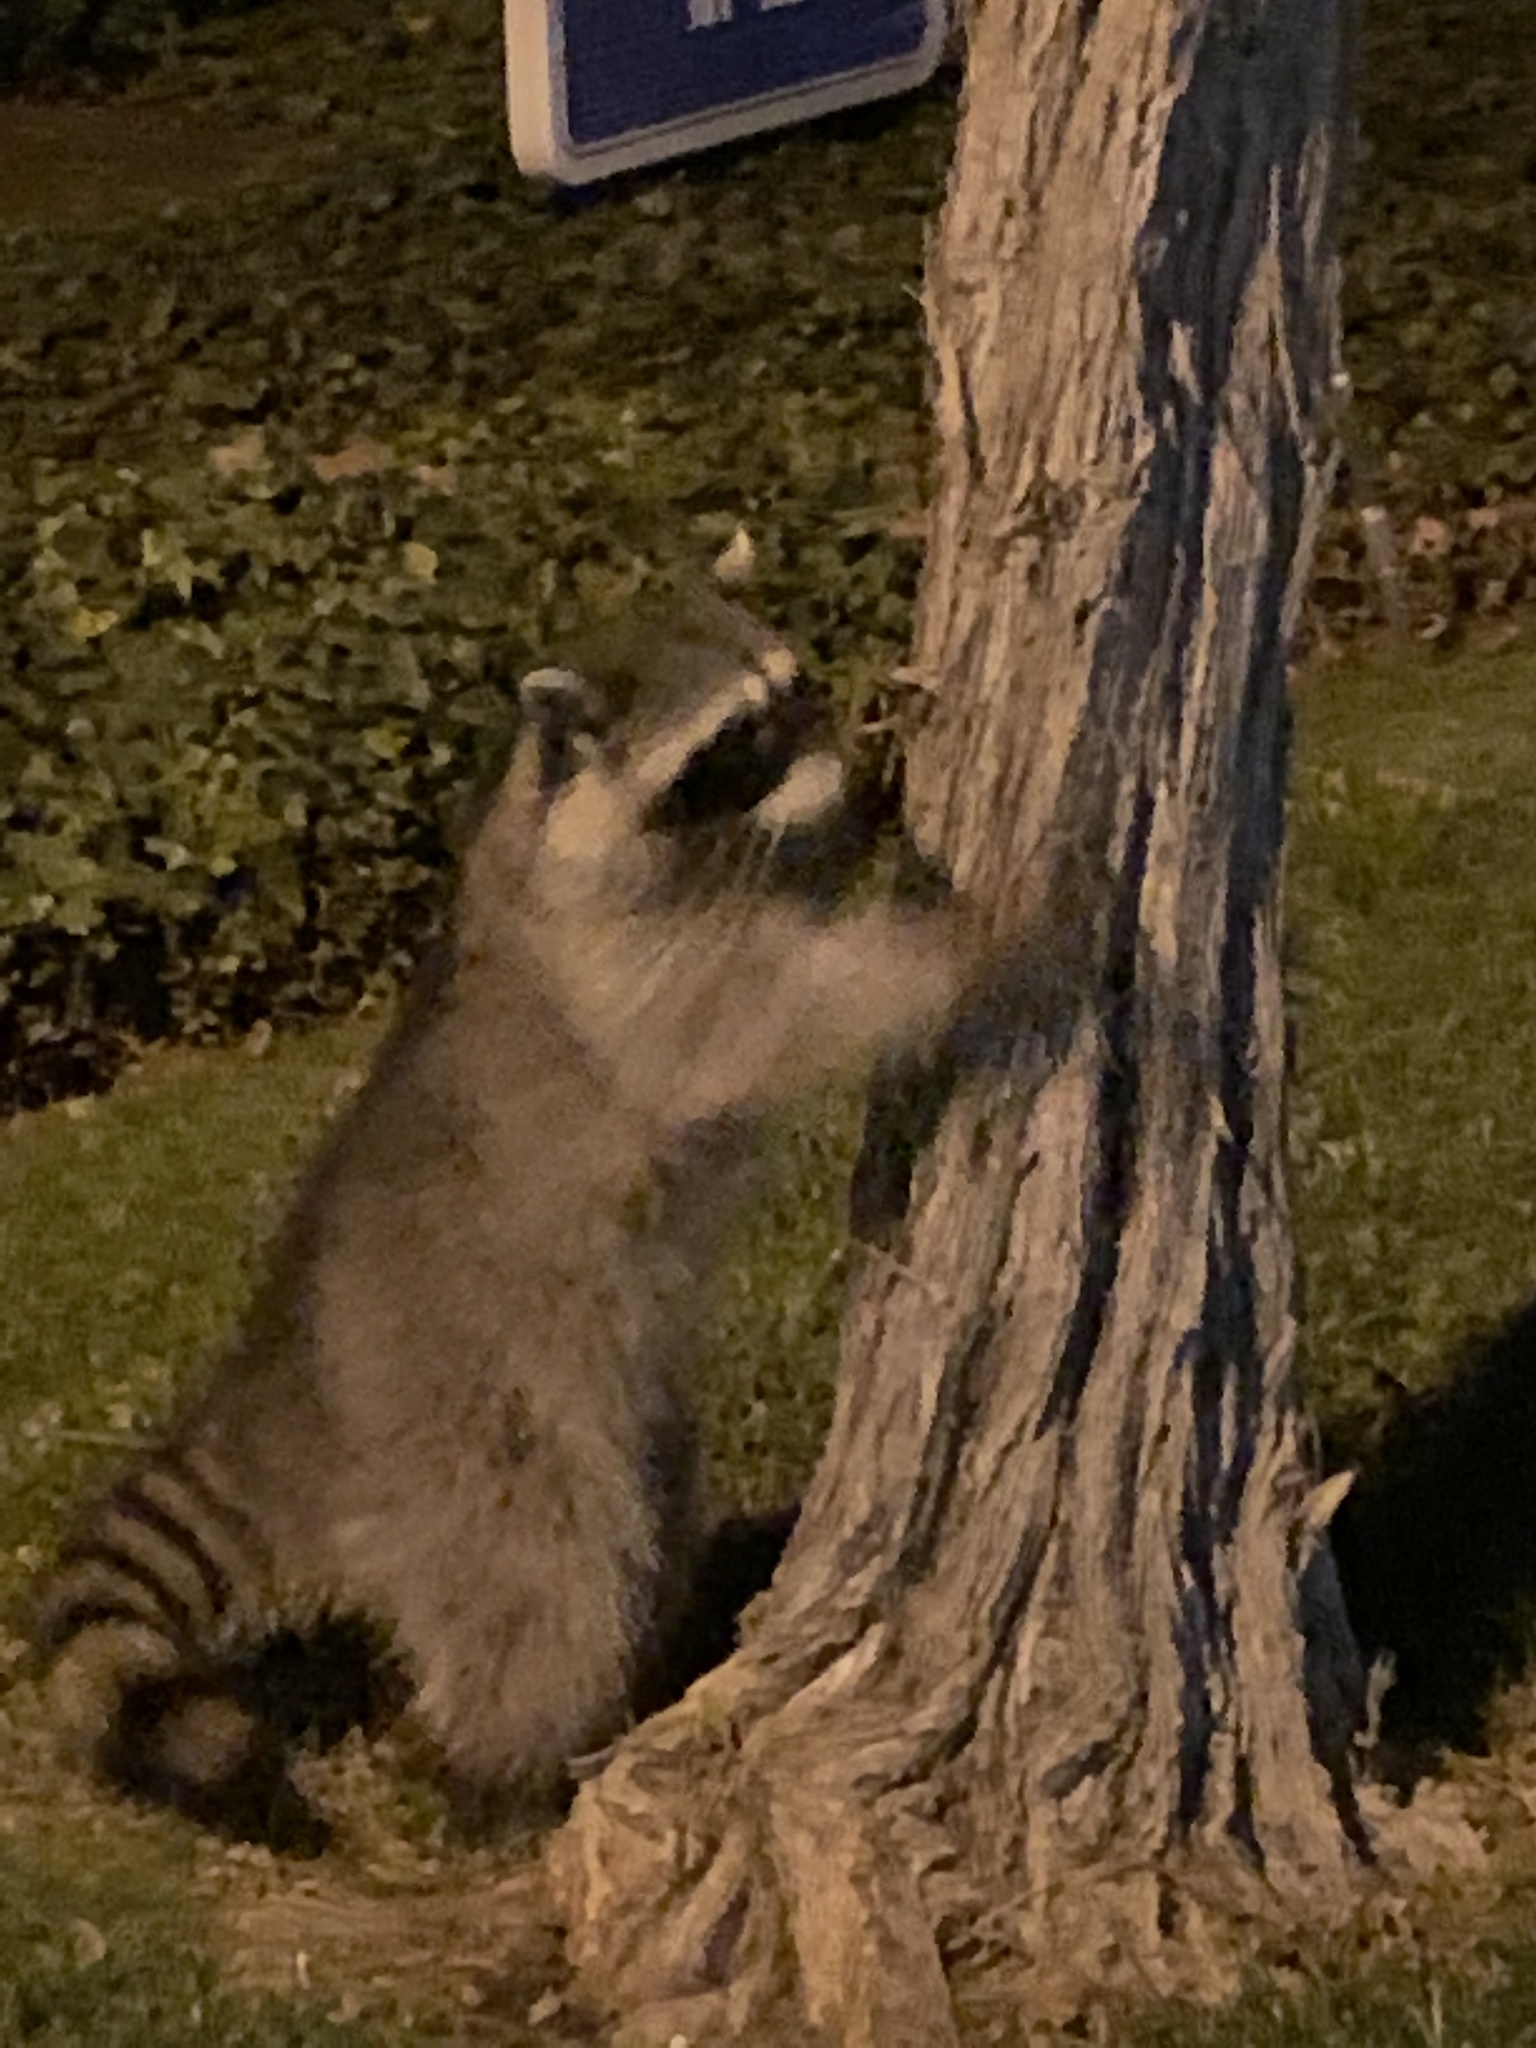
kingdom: Animalia
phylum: Chordata
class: Mammalia
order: Carnivora
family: Procyonidae
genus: Procyon
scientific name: Procyon lotor
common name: Raccoon
